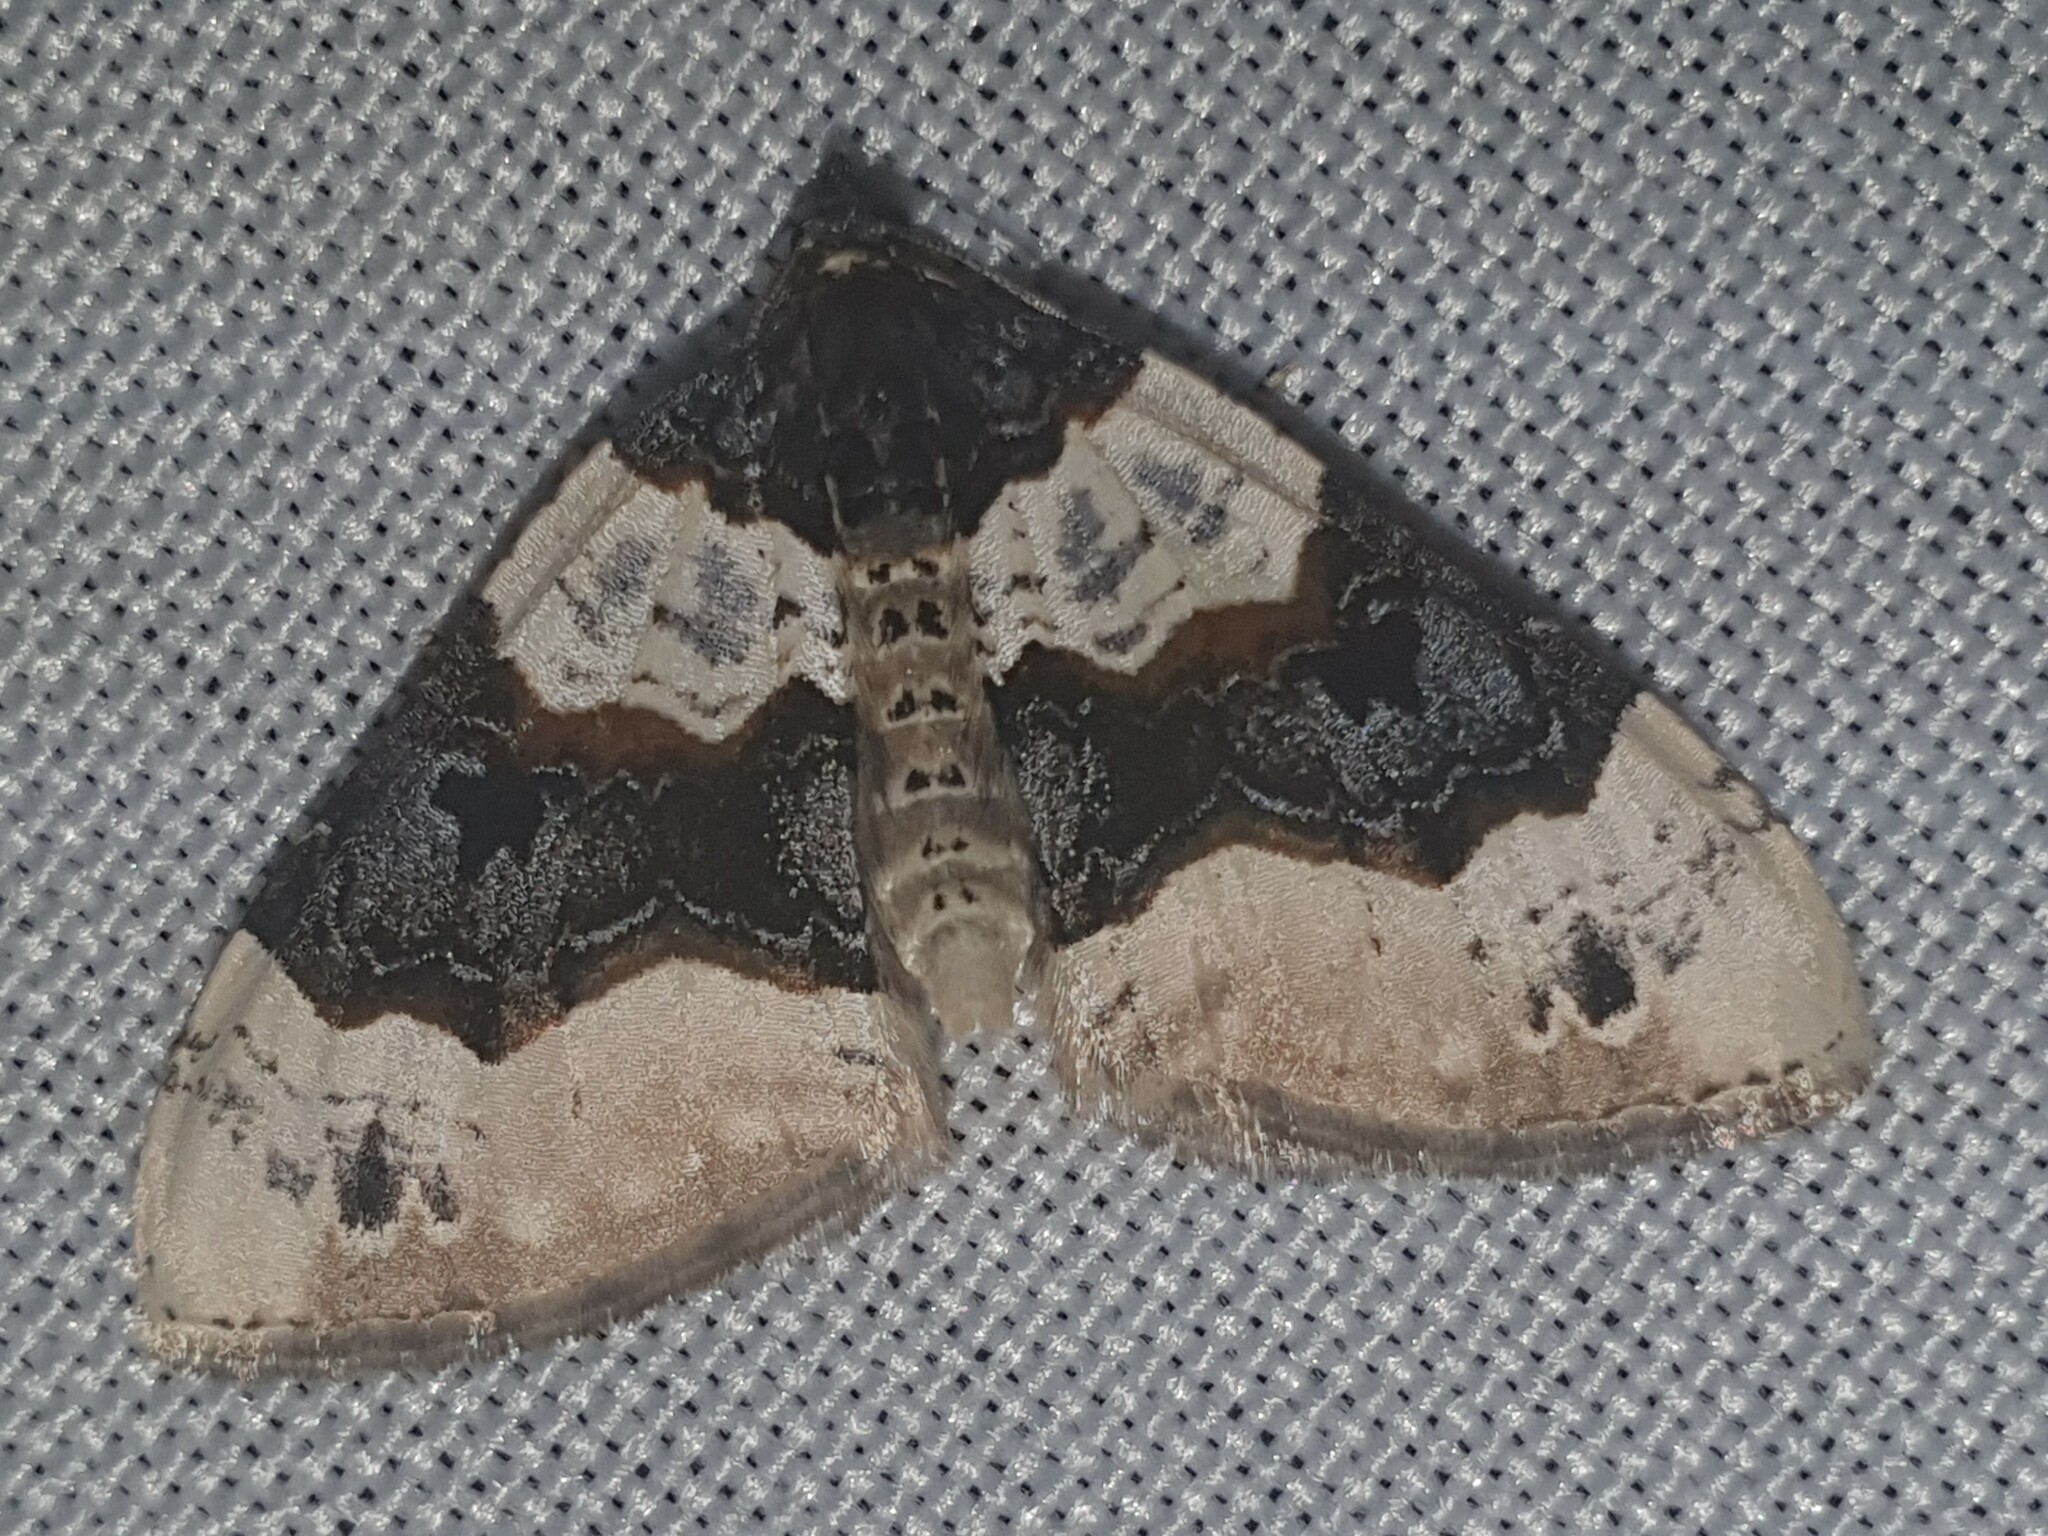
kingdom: Animalia
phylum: Arthropoda
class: Insecta
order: Lepidoptera
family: Geometridae
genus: Cosmorhoe
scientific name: Cosmorhoe ocellata
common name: Purple bar
